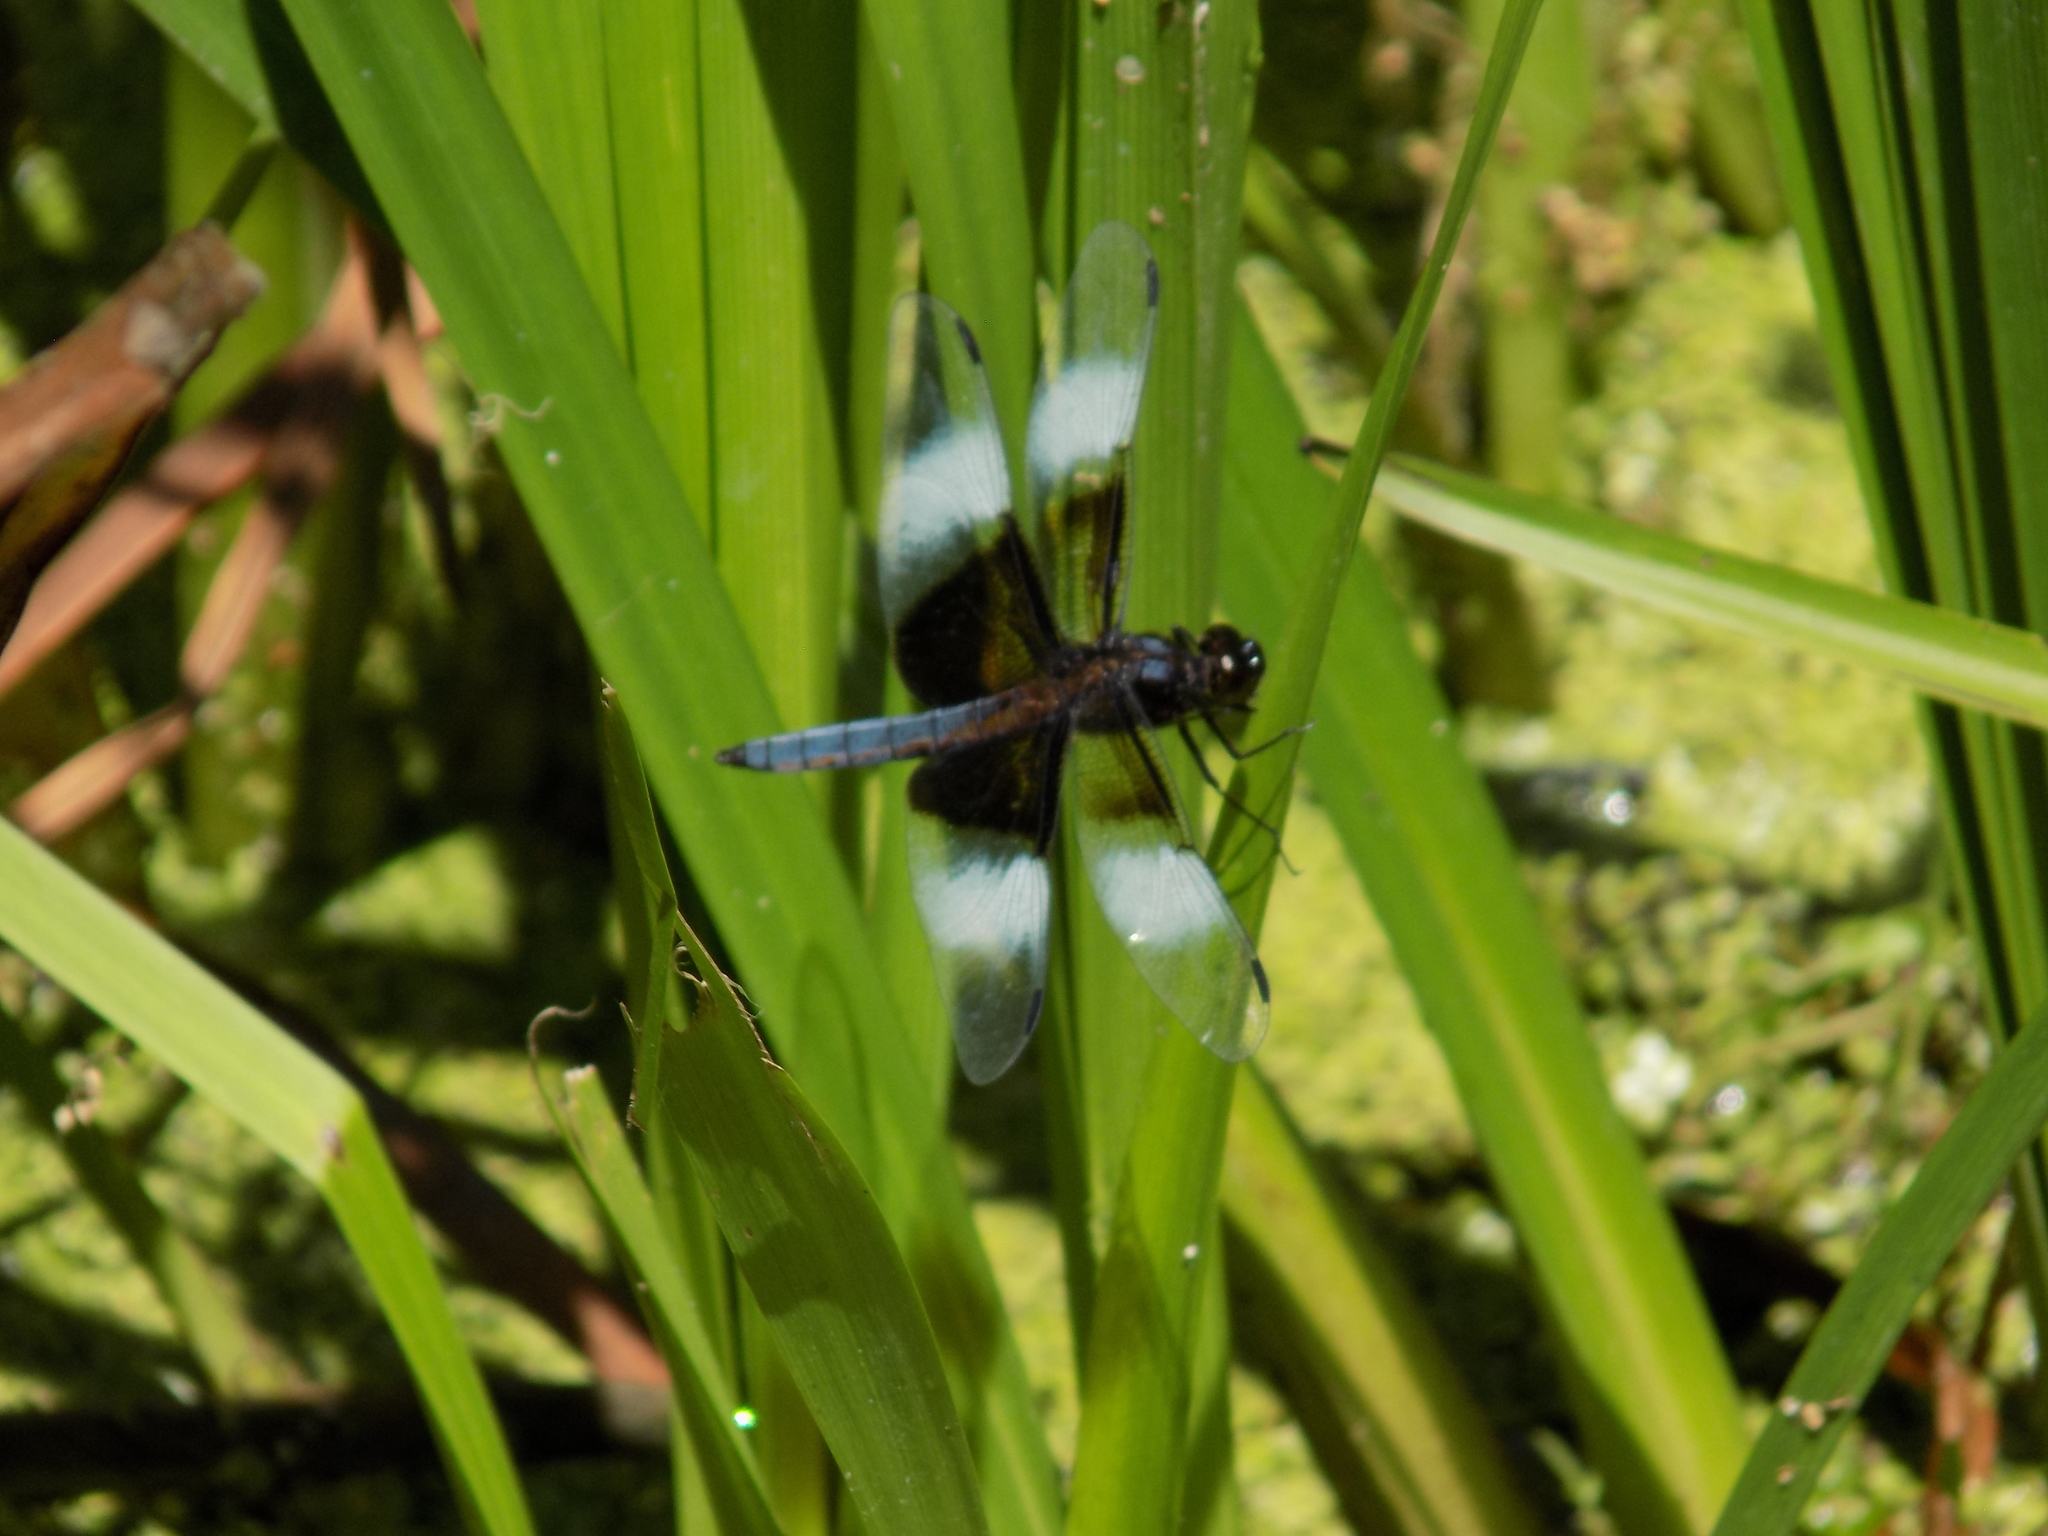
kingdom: Animalia
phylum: Arthropoda
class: Insecta
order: Odonata
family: Libellulidae
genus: Libellula
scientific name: Libellula luctuosa
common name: Widow skimmer
